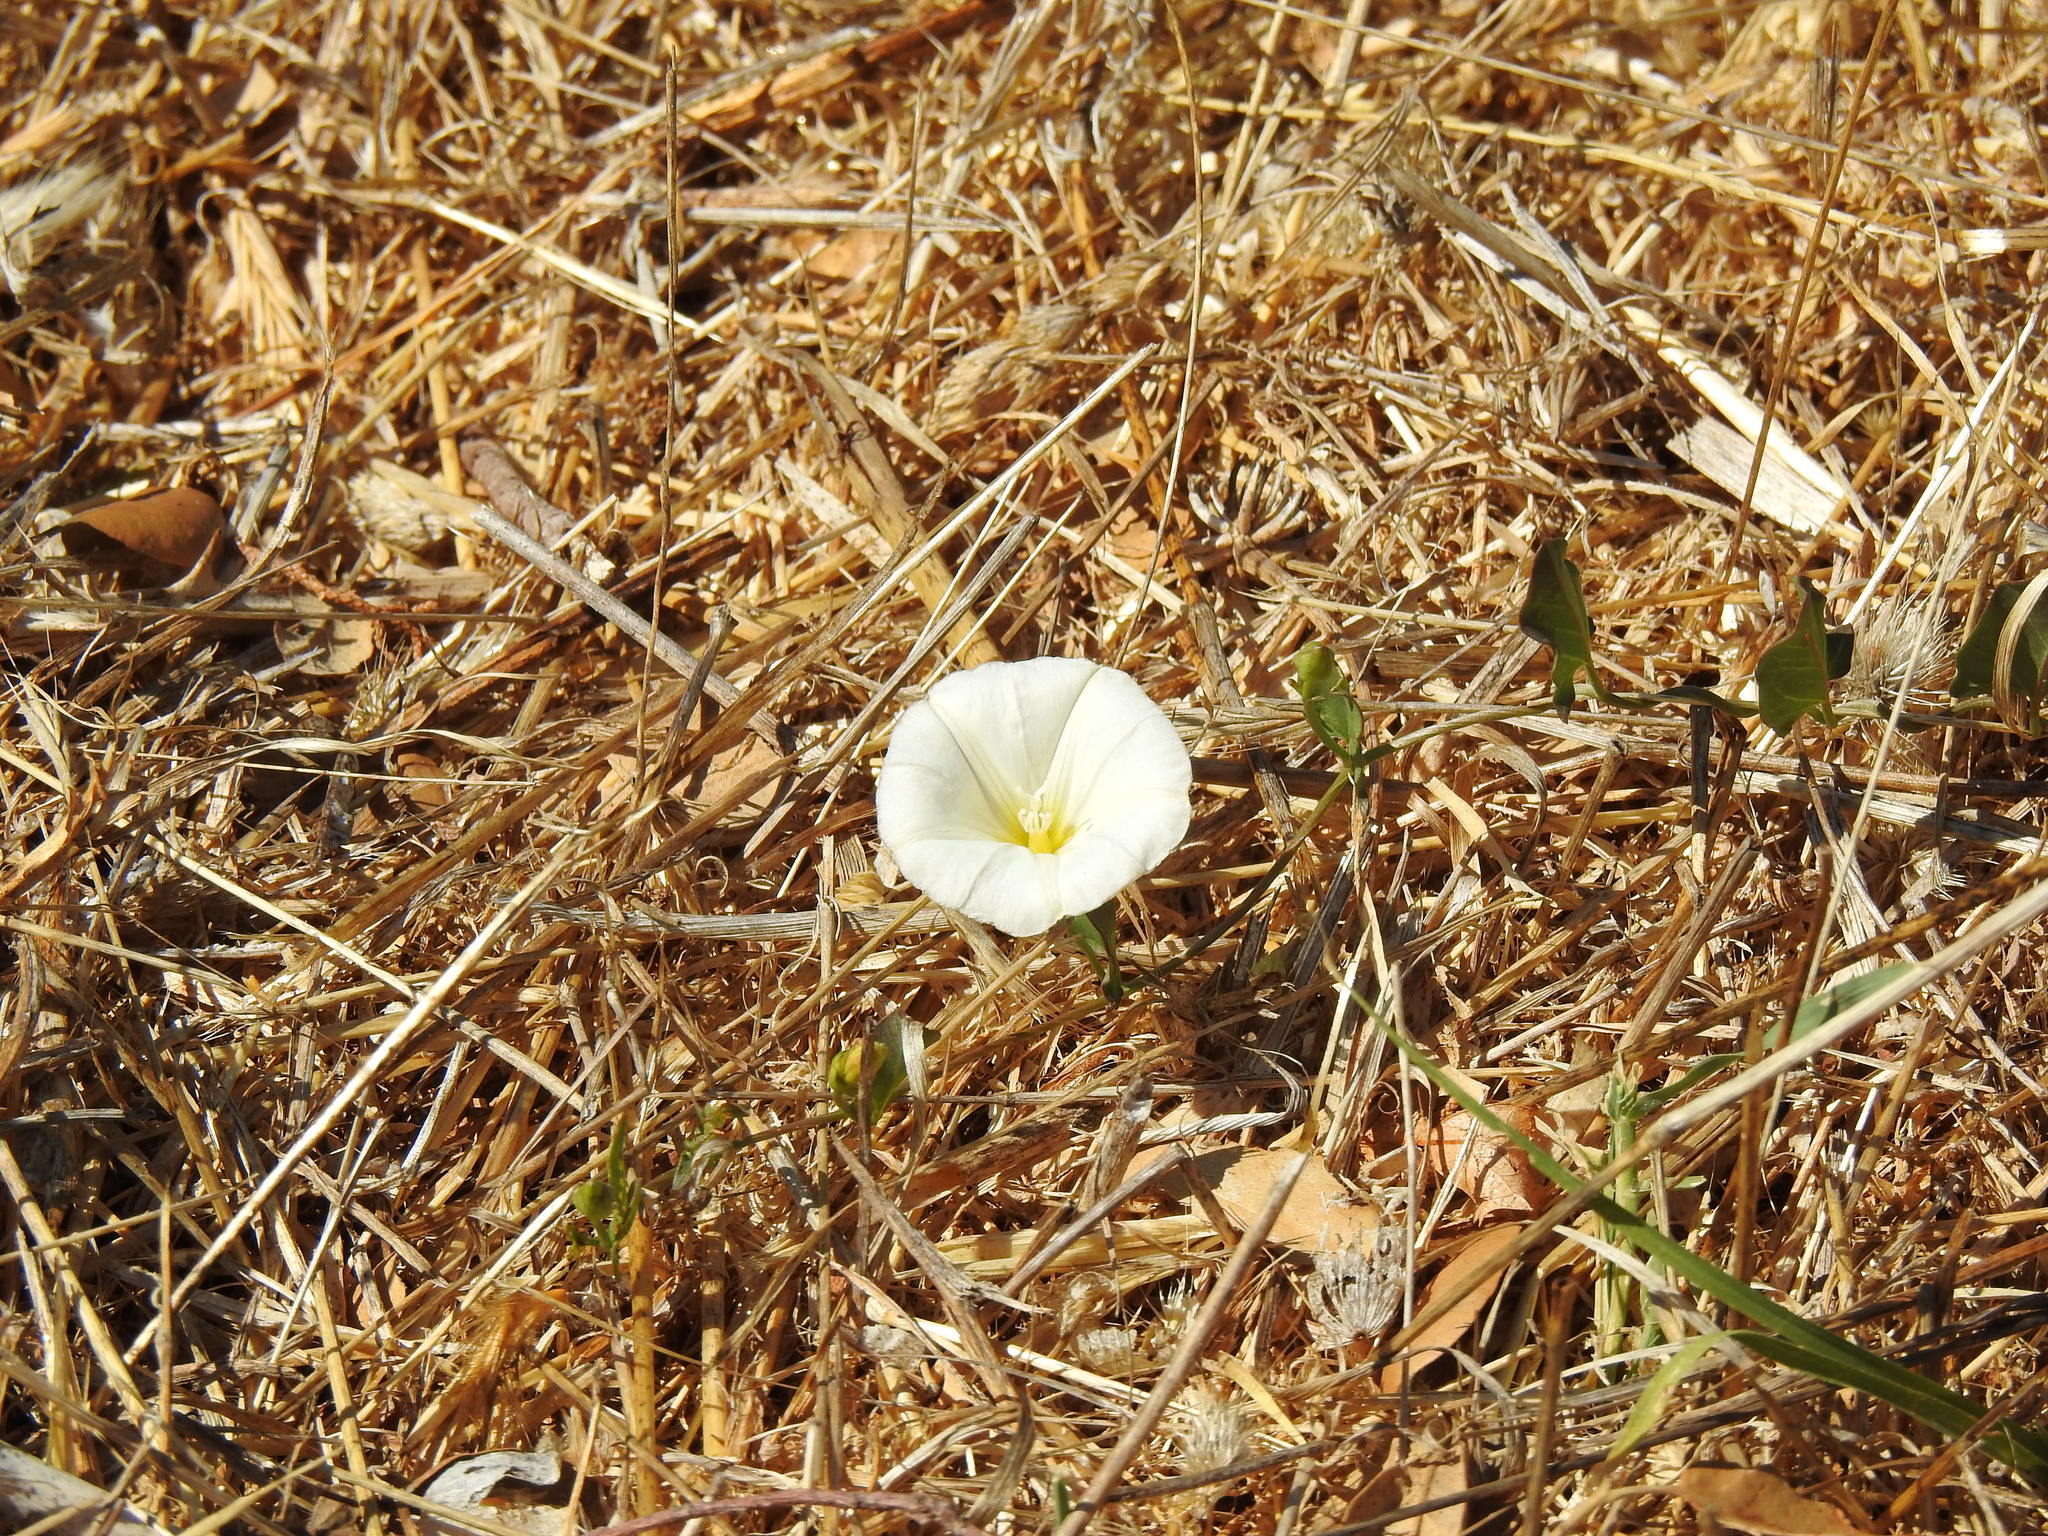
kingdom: Plantae
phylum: Tracheophyta
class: Magnoliopsida
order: Solanales
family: Convolvulaceae
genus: Convolvulus
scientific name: Convolvulus arvensis
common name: Field bindweed
